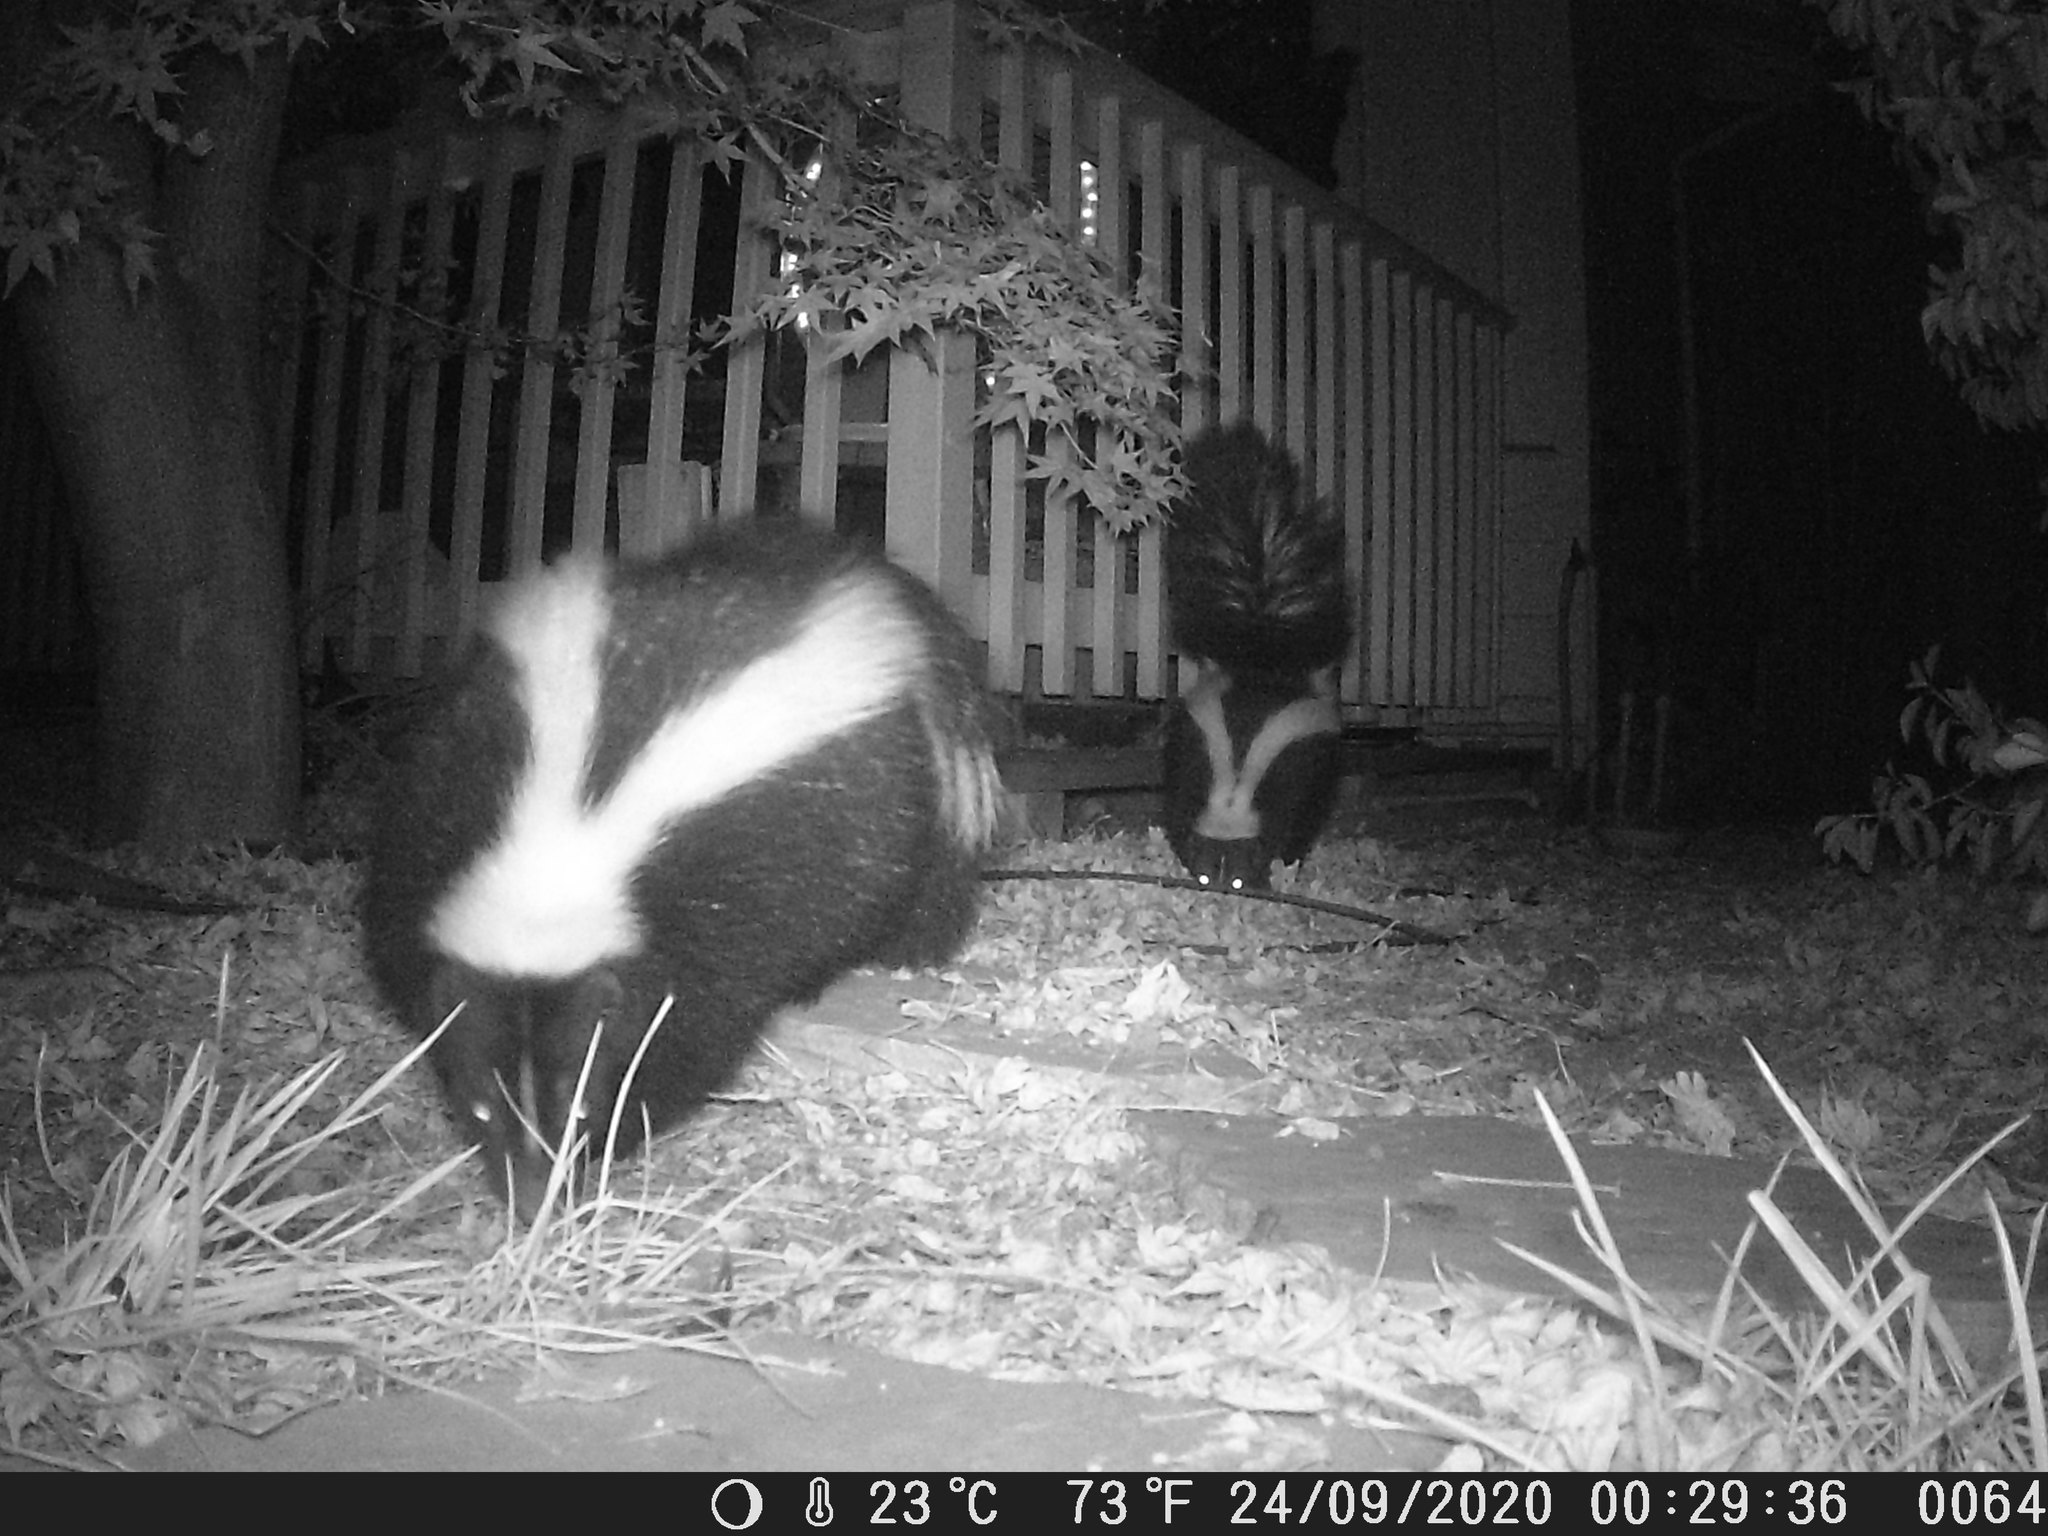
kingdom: Animalia
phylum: Chordata
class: Mammalia
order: Carnivora
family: Mephitidae
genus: Mephitis
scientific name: Mephitis mephitis
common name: Striped skunk
